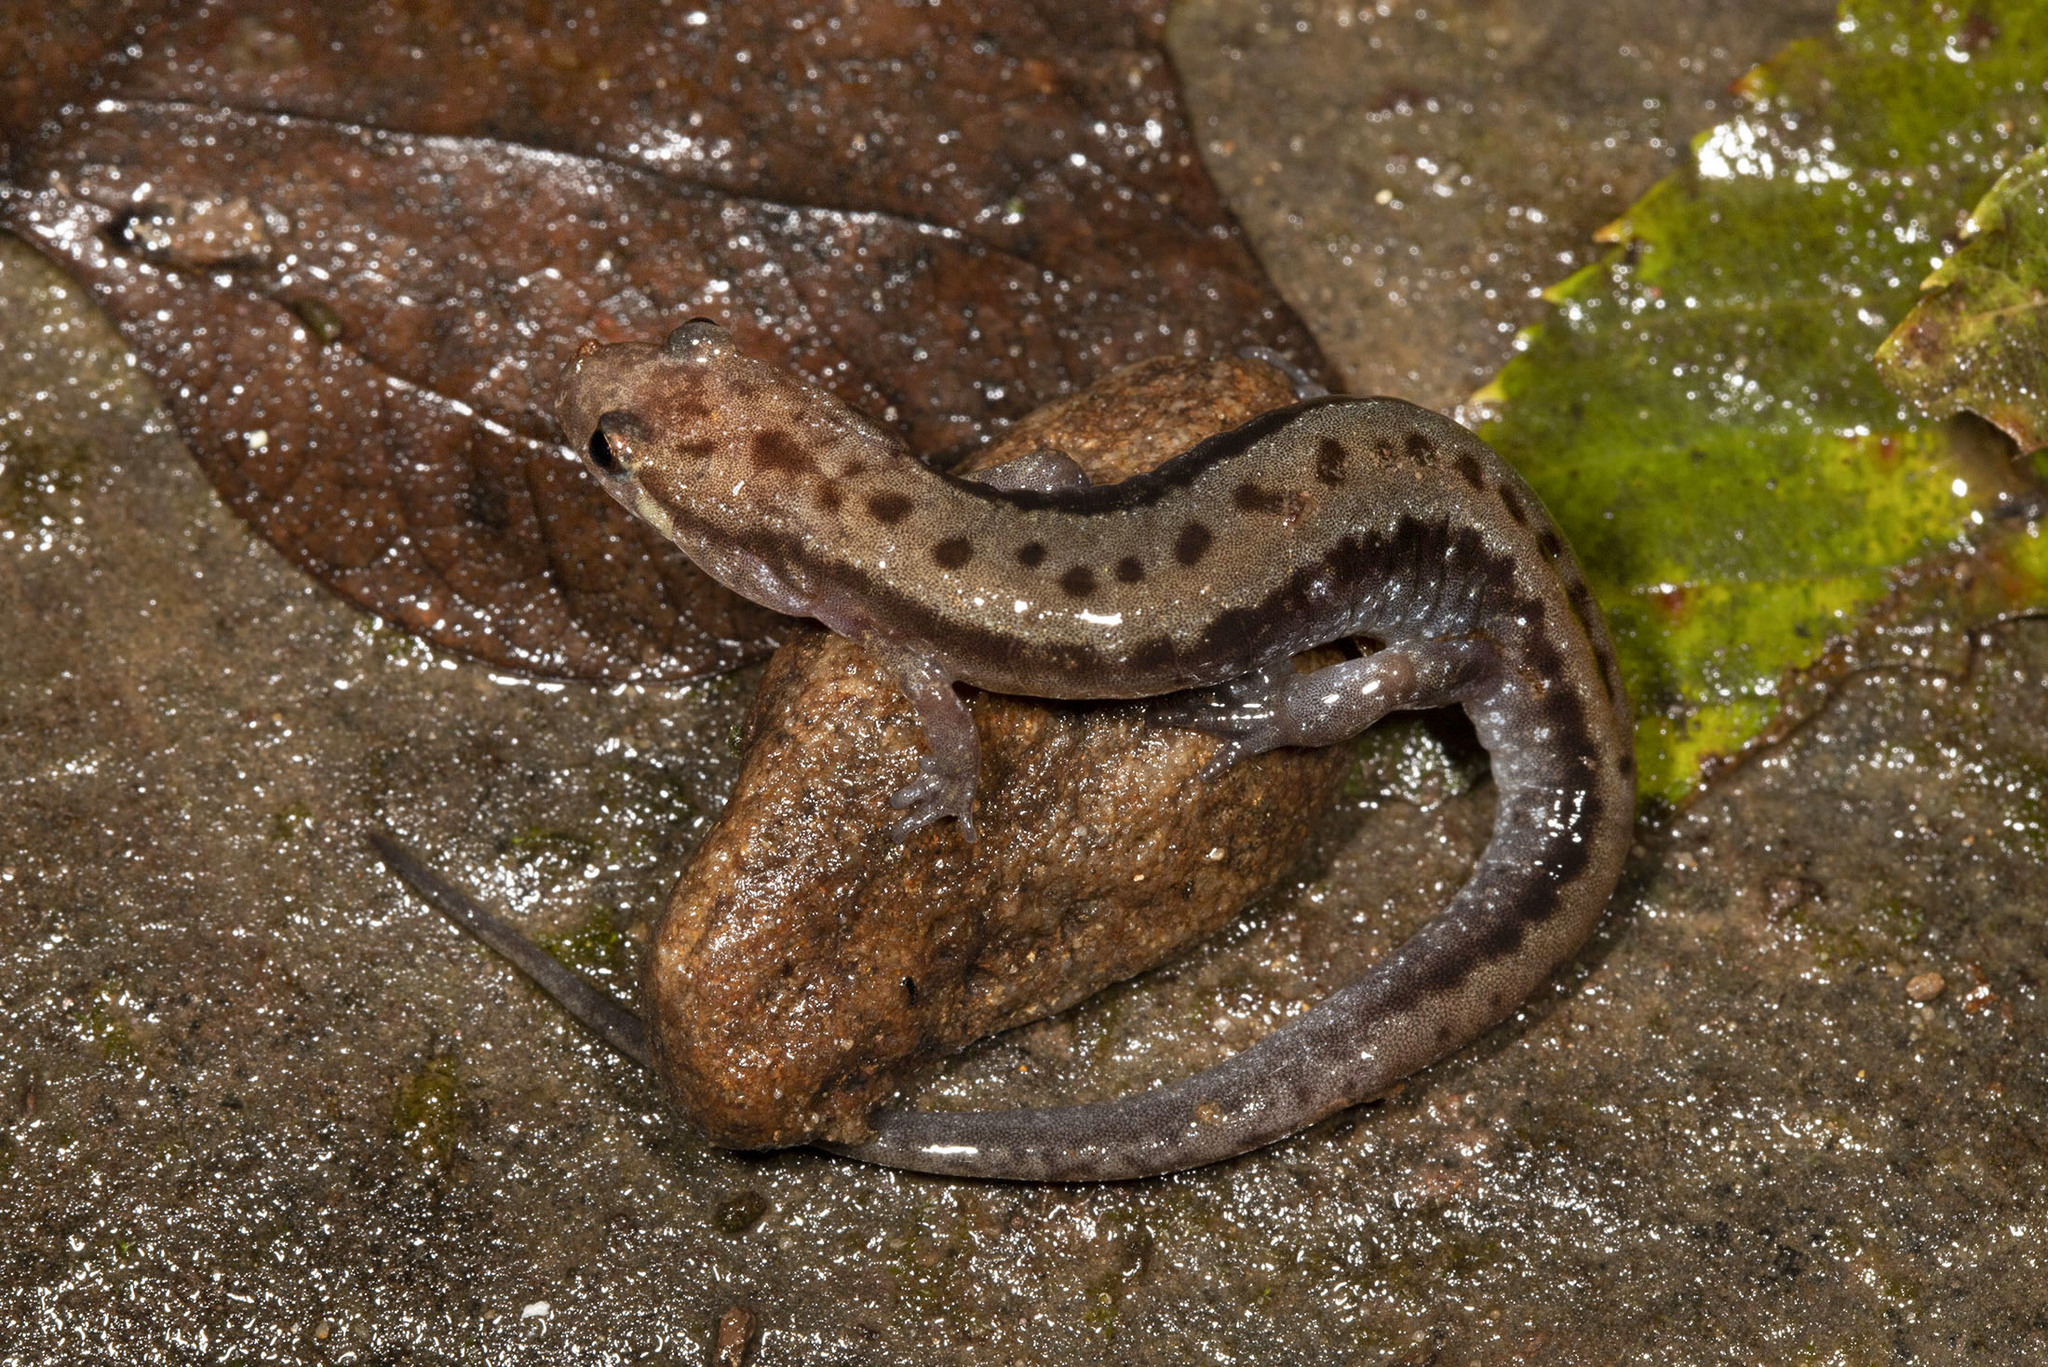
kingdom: Animalia
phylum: Chordata
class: Amphibia
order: Caudata
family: Plethodontidae
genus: Desmognathus
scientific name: Desmognathus ochrophaeus
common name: Allegheny mountain dusky salamander
